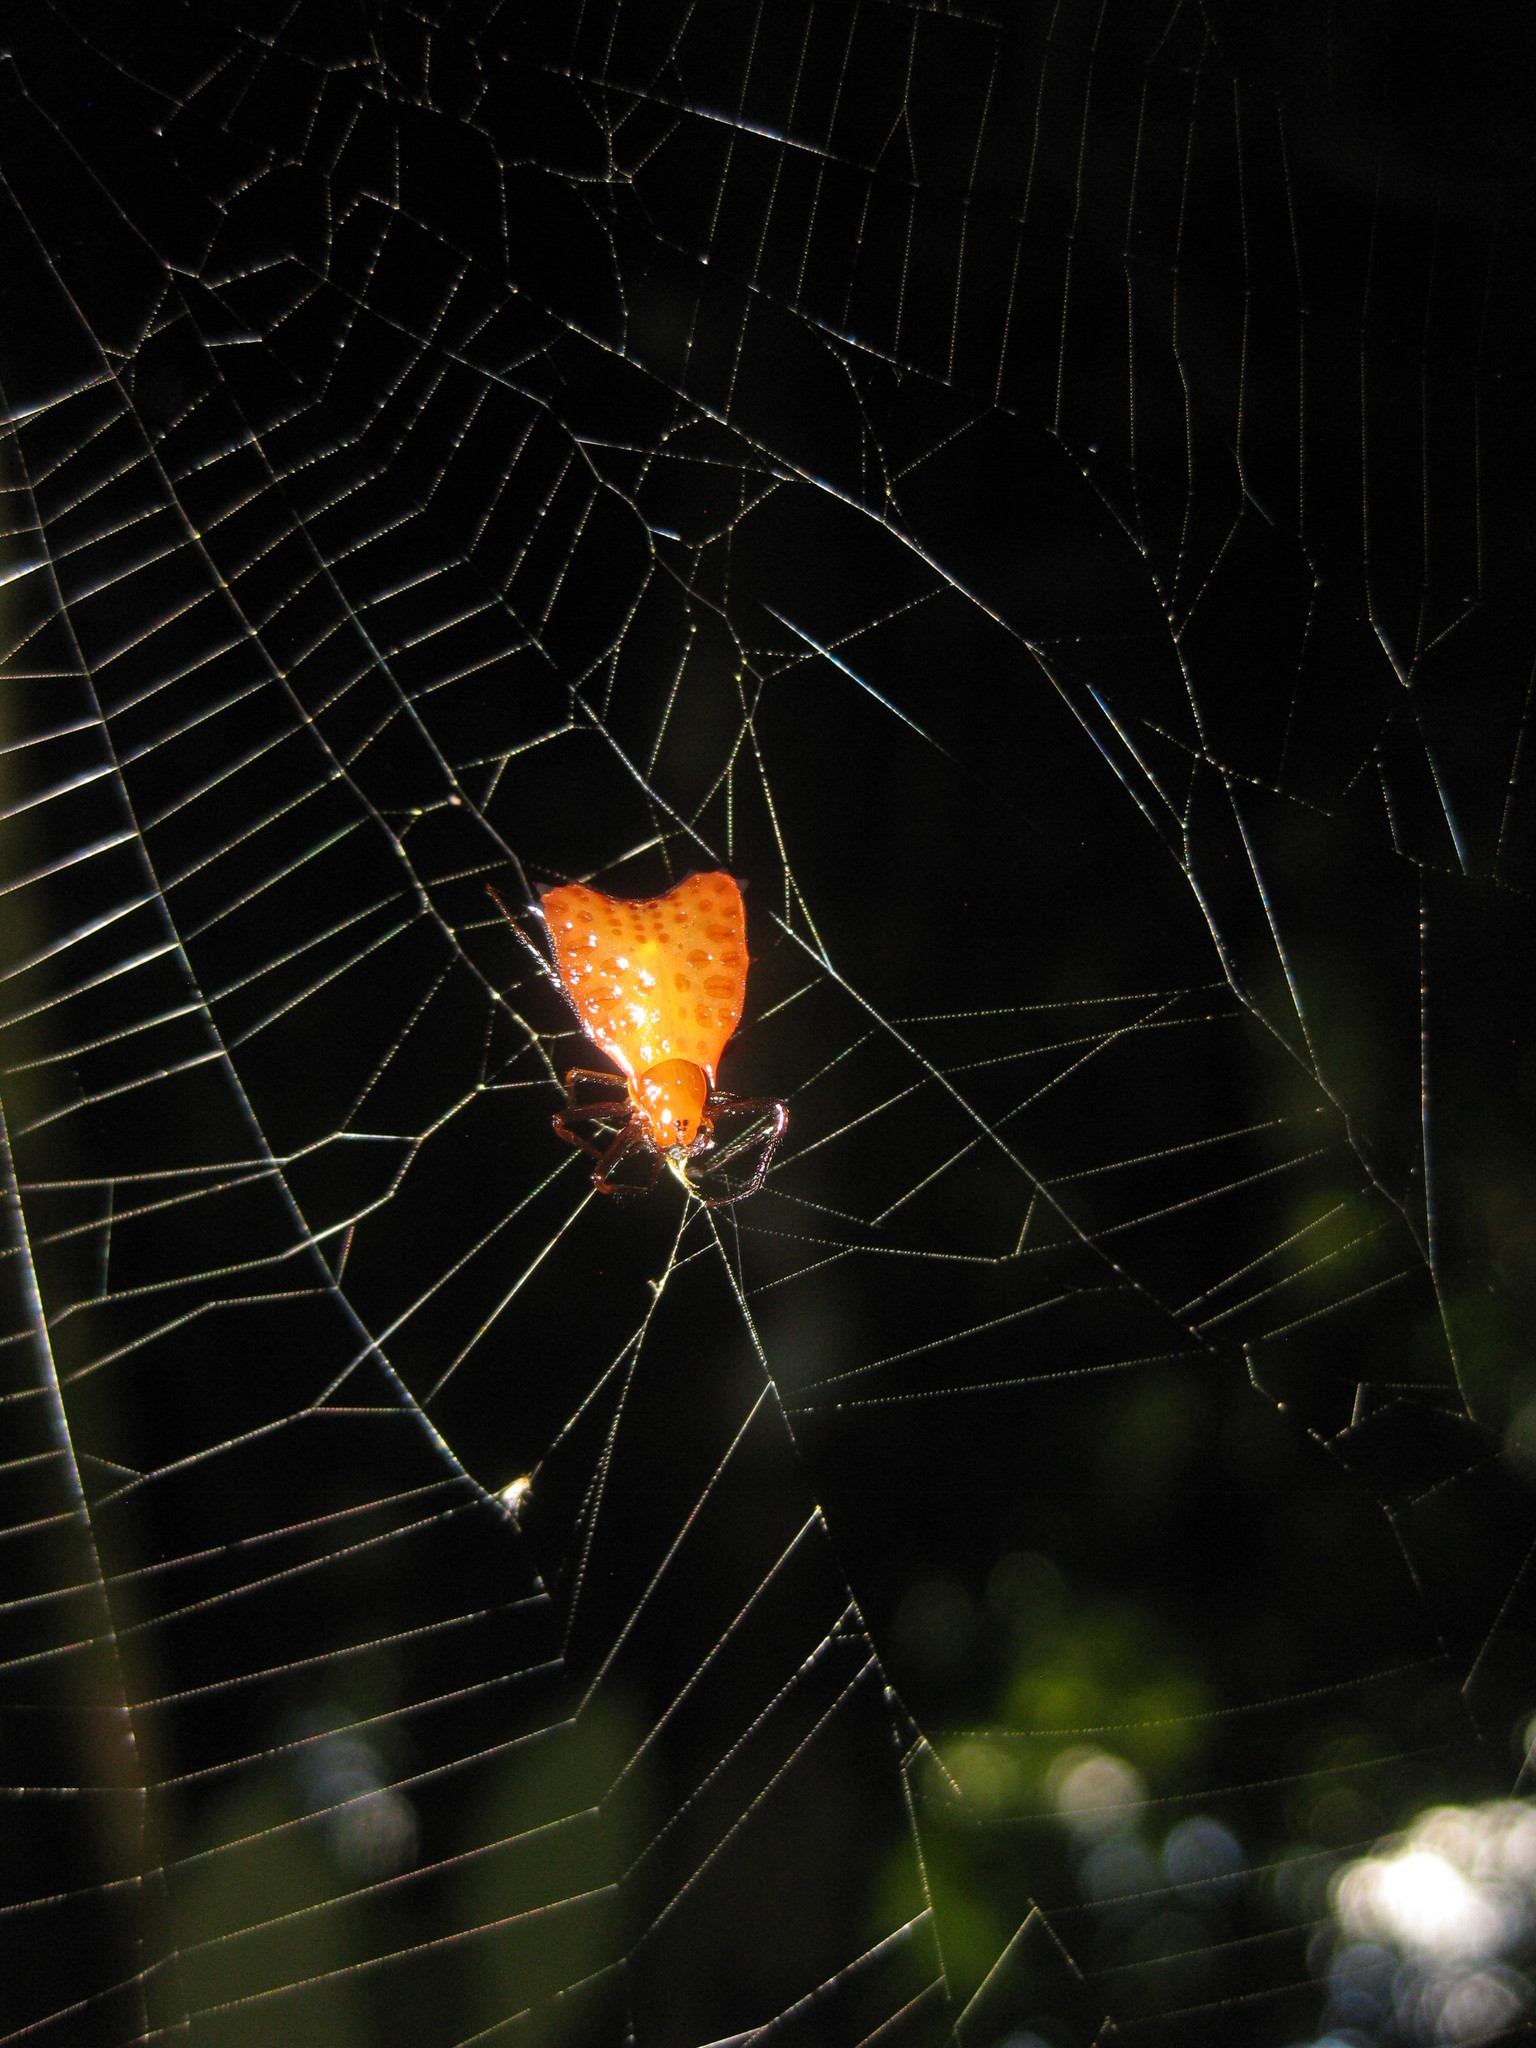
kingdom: Animalia
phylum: Arthropoda
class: Arachnida
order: Araneae
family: Araneidae
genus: Micrathena
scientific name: Micrathena clypeata
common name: Orb weavers
